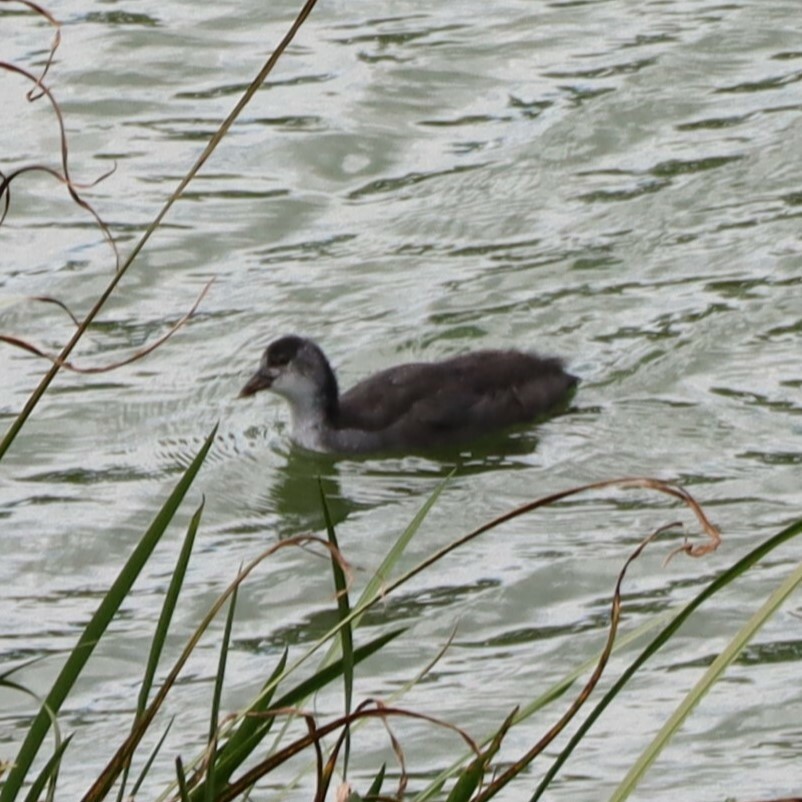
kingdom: Animalia
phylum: Chordata
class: Aves
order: Gruiformes
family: Rallidae
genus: Fulica
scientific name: Fulica atra
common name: Eurasian coot
